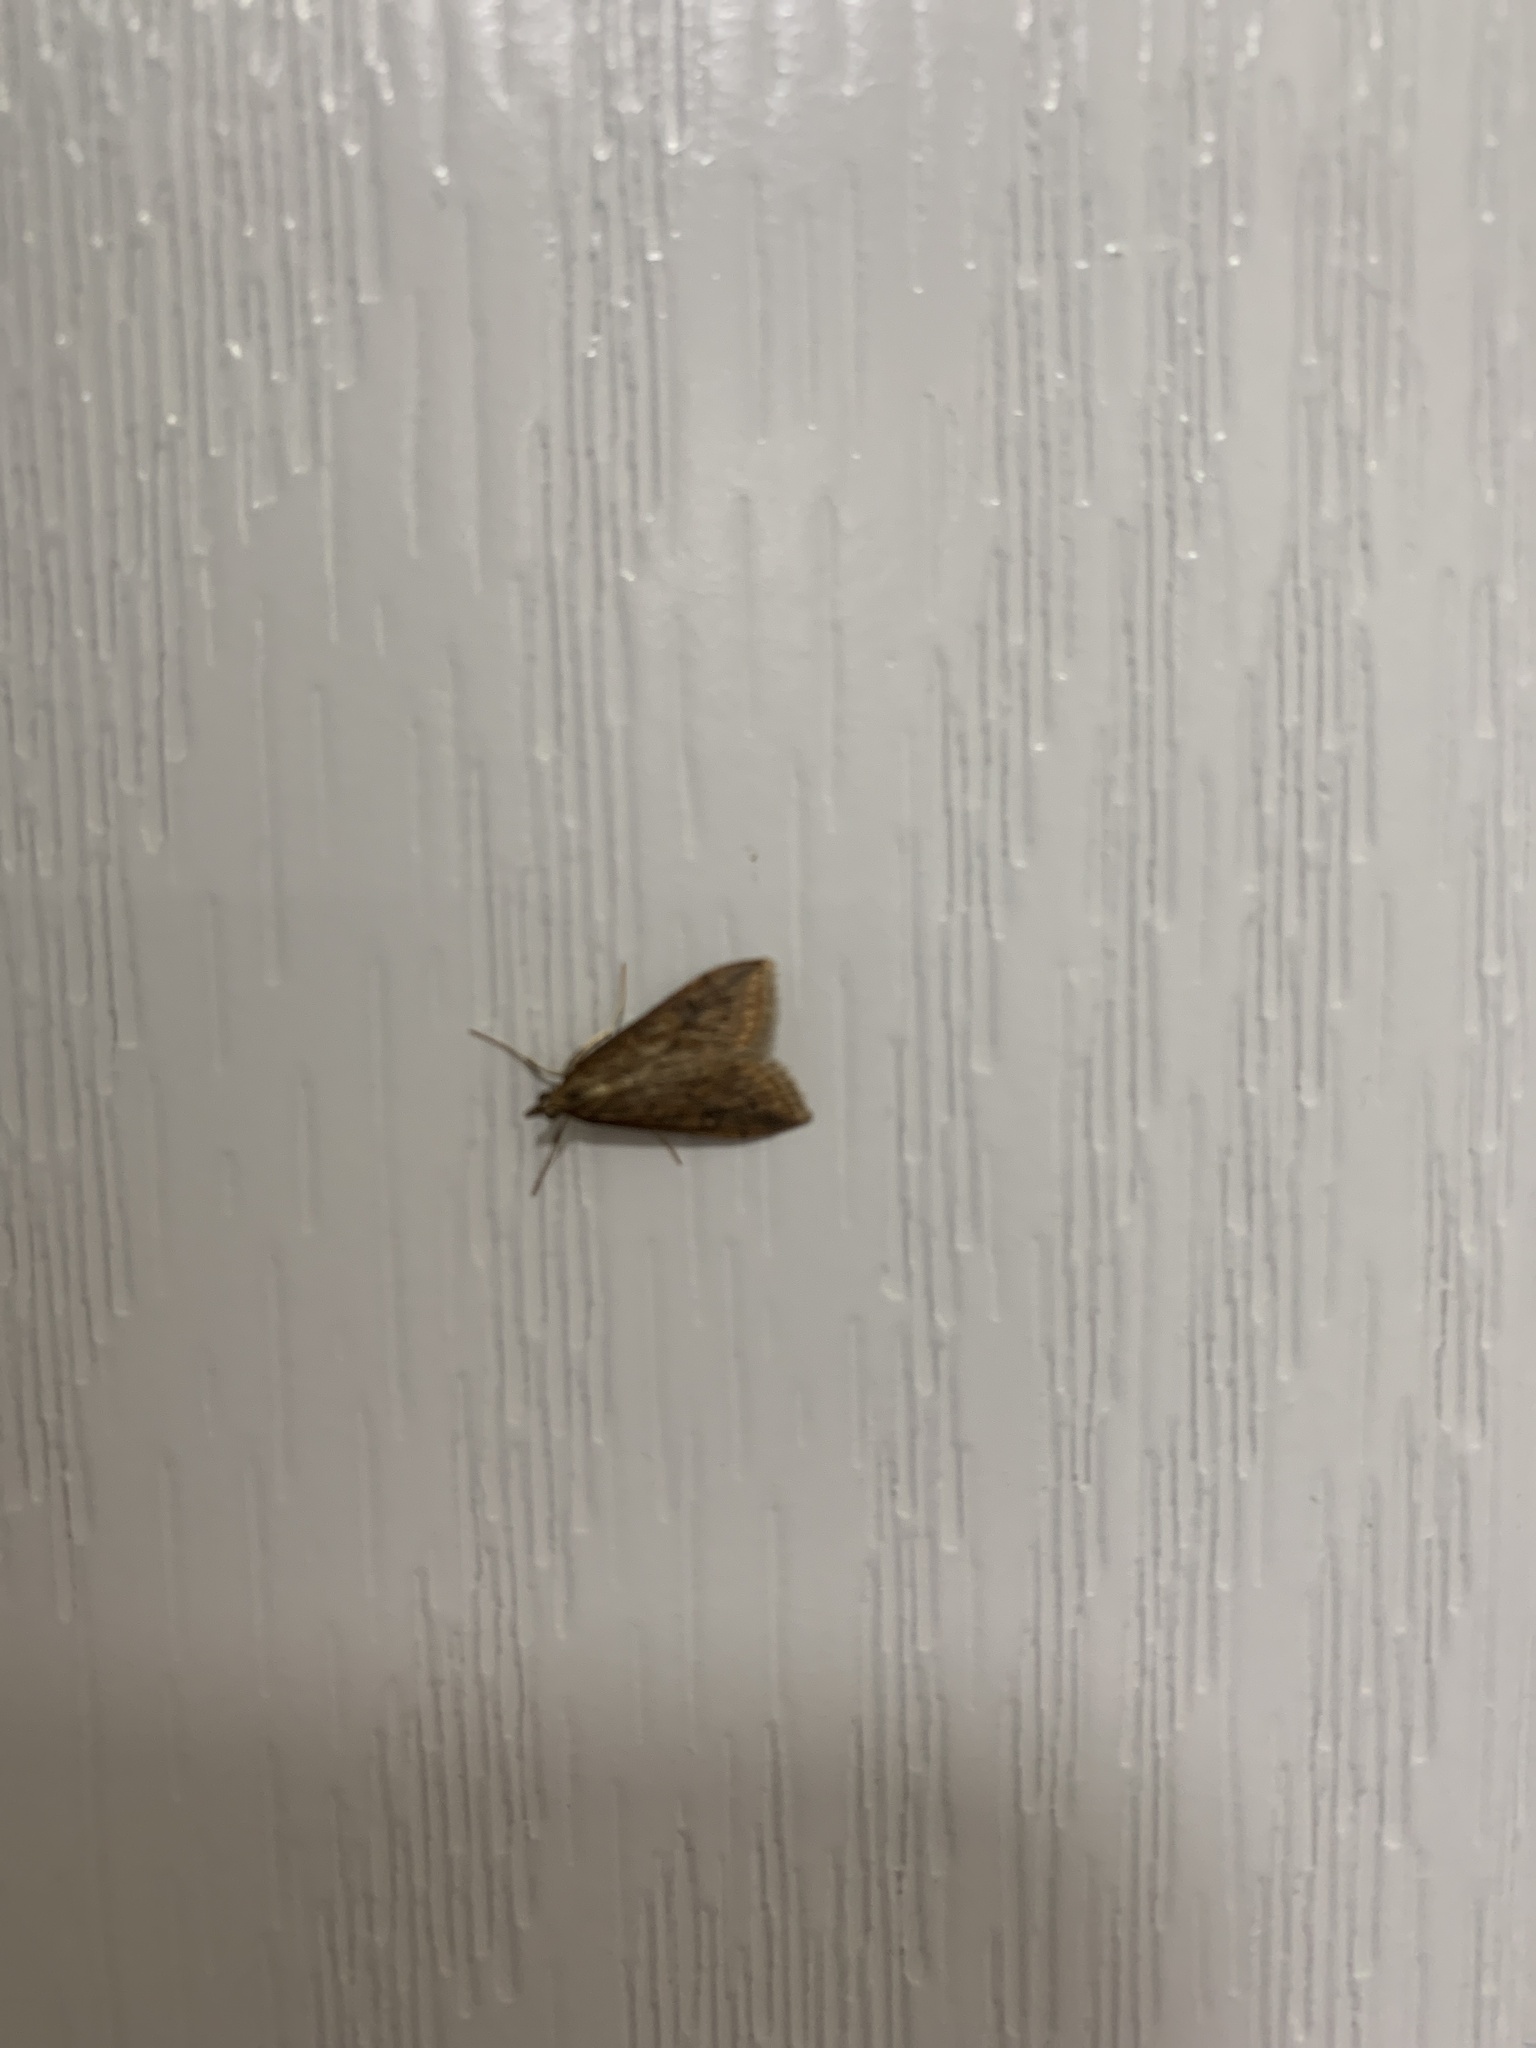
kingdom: Animalia
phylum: Arthropoda
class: Insecta
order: Lepidoptera
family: Crambidae
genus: Udea
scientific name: Udea ferrugalis
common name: Rusty dot
